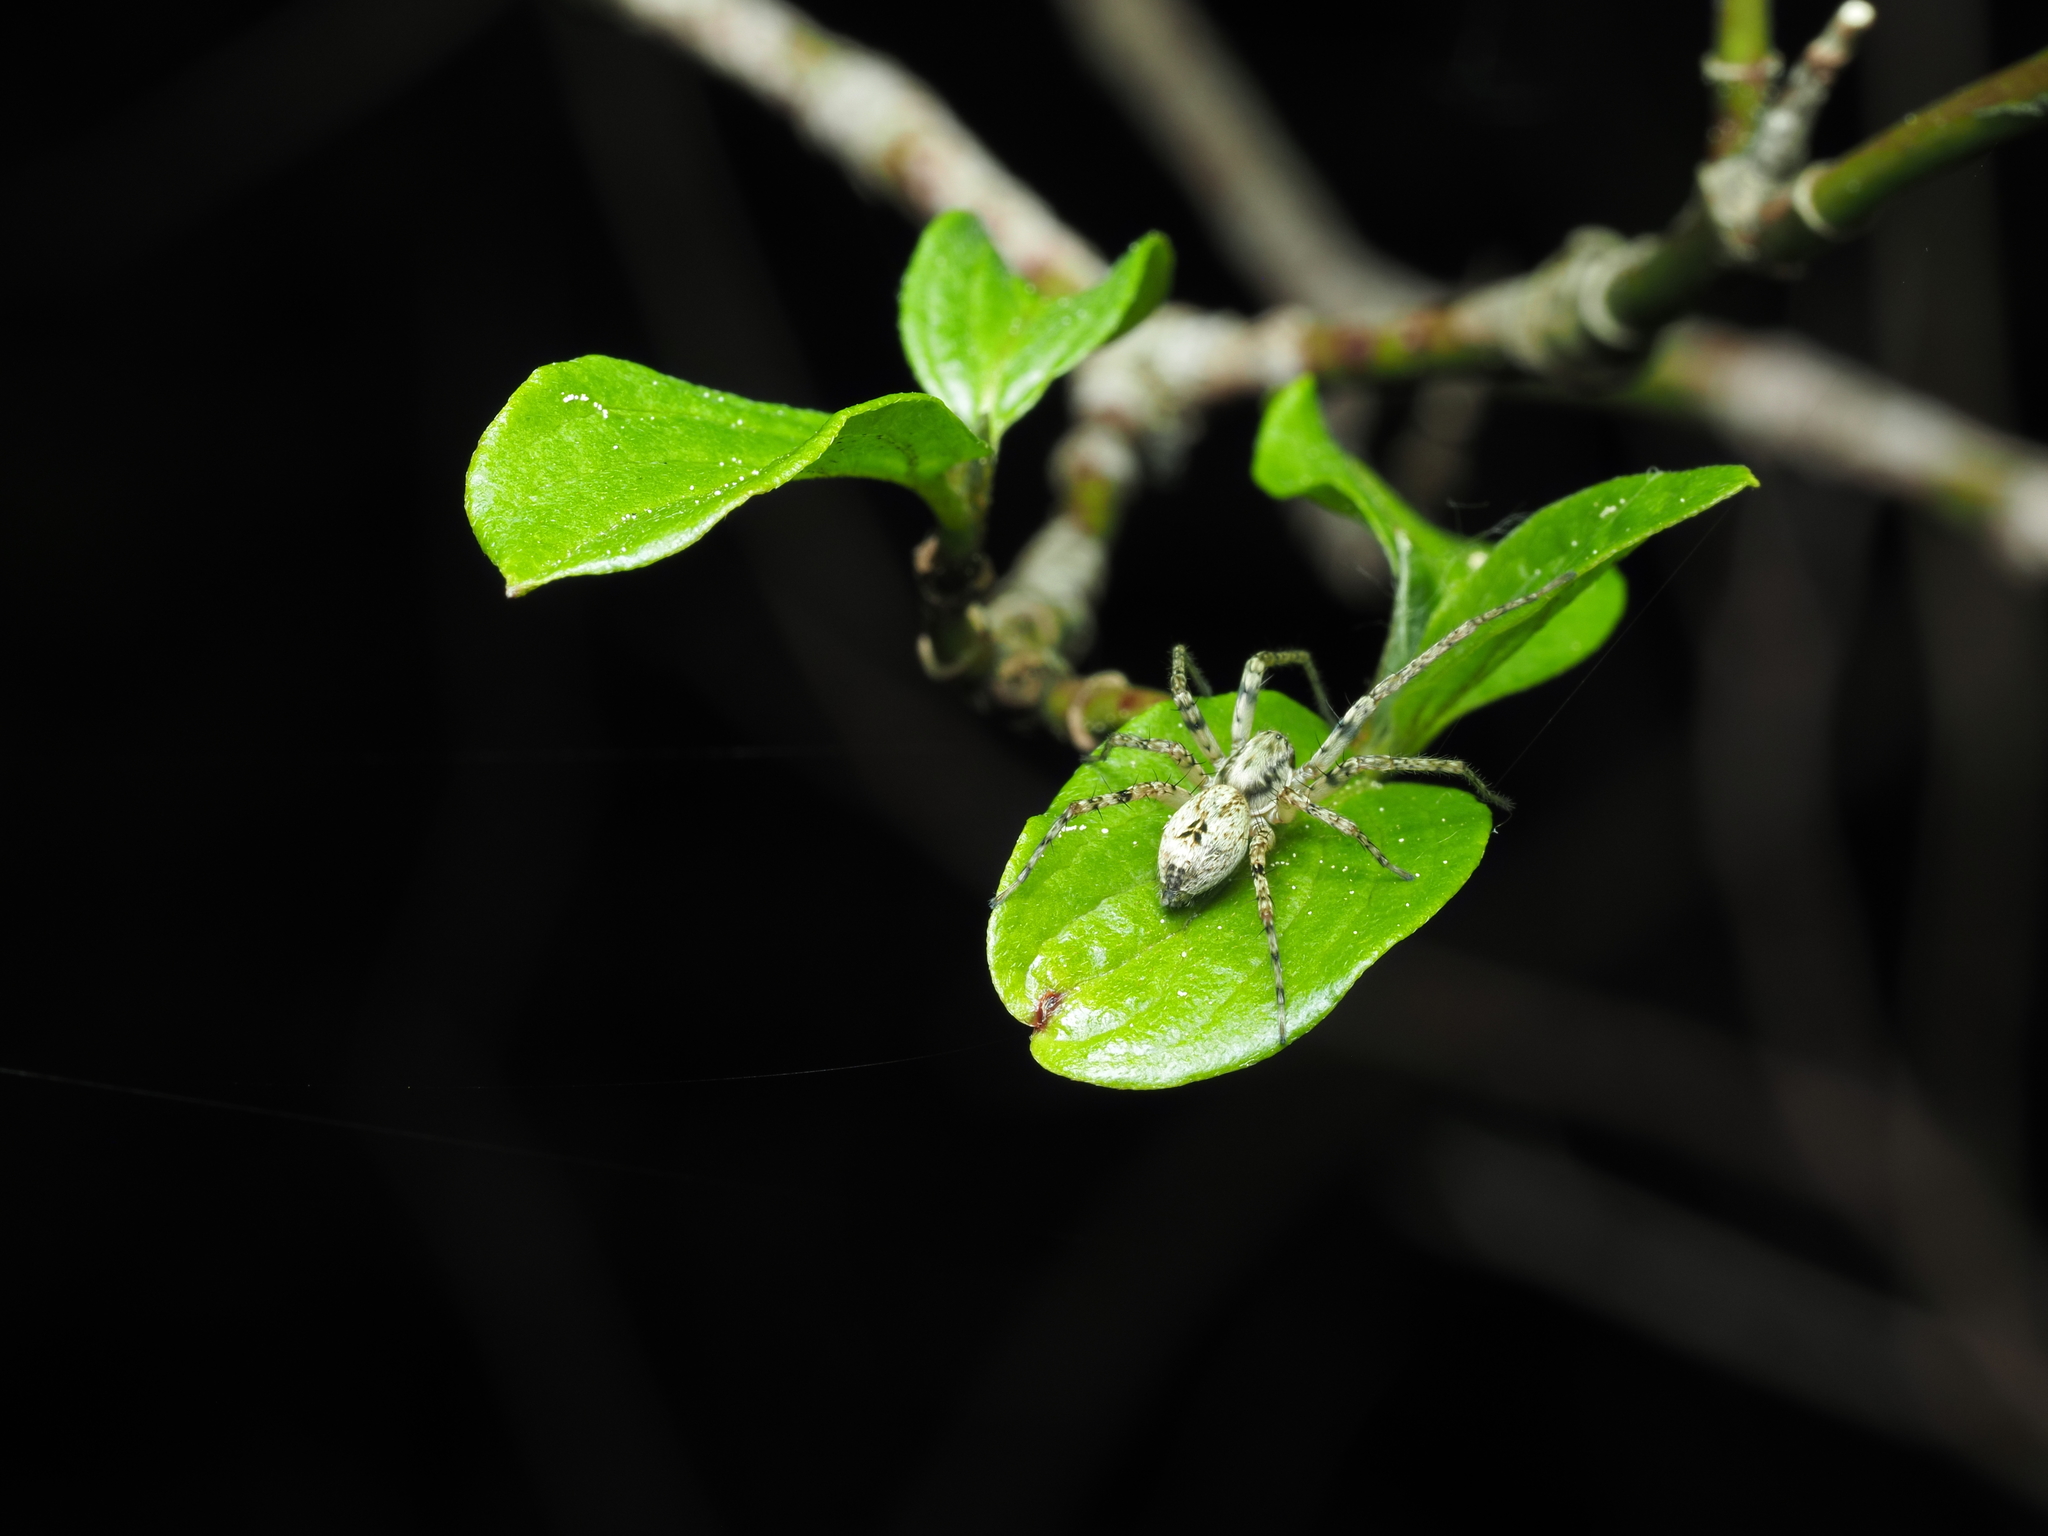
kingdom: Animalia
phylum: Arthropoda
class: Arachnida
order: Araneae
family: Anyphaenidae
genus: Anyphaena
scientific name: Anyphaena accentuata
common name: Buzzing spider
